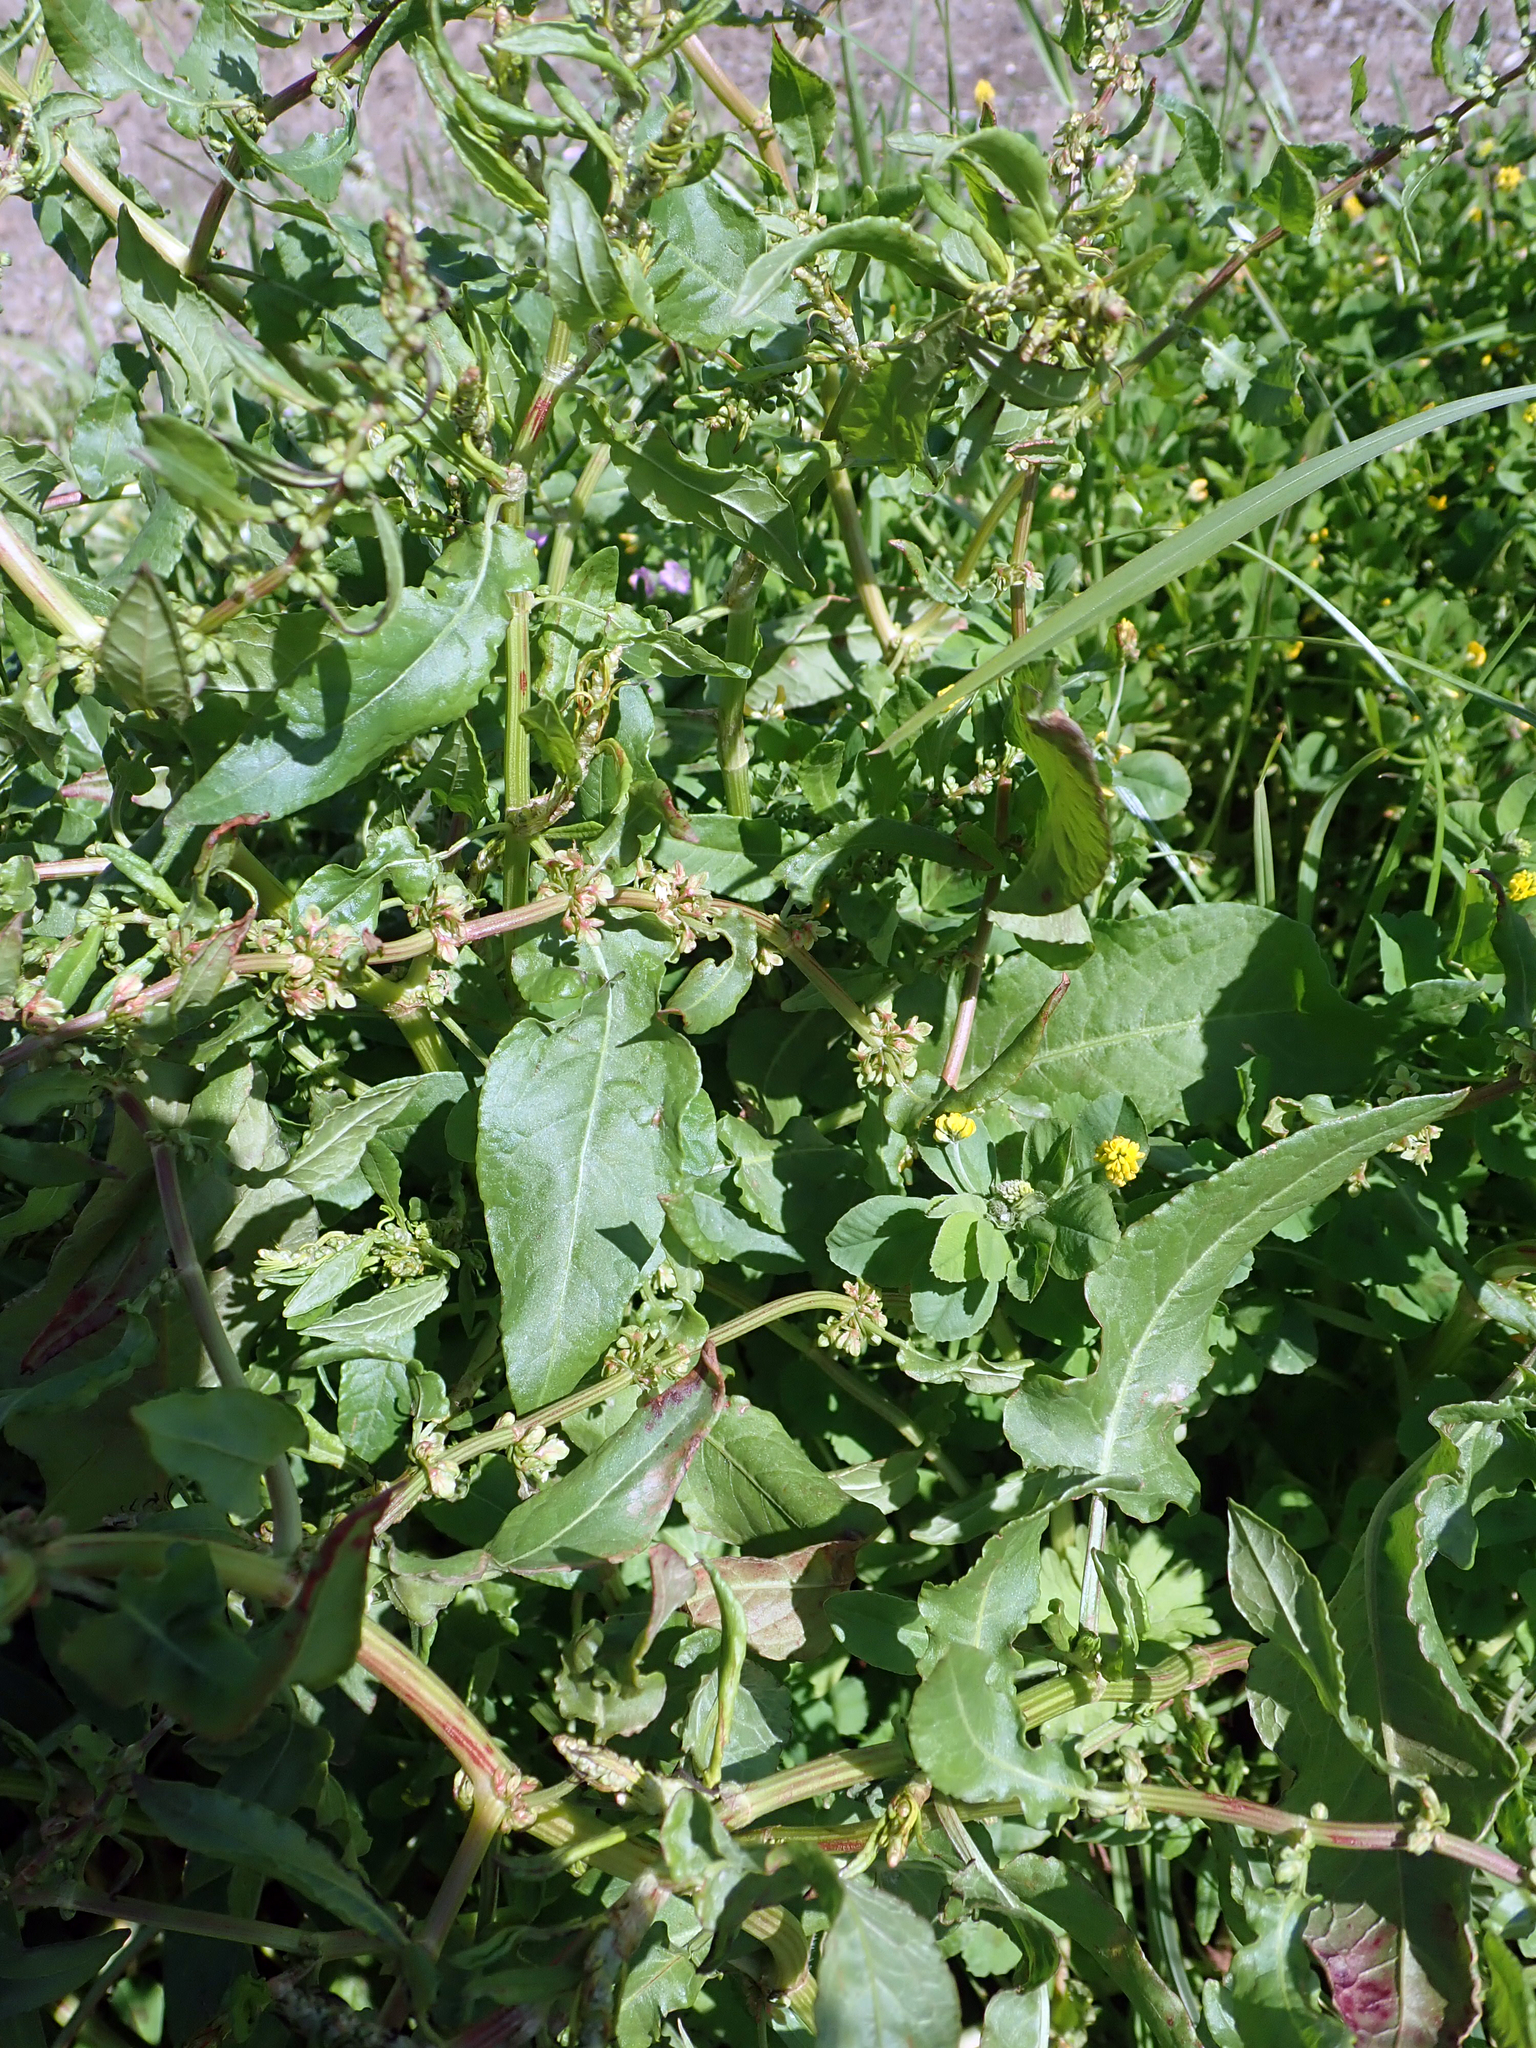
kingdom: Plantae
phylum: Tracheophyta
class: Magnoliopsida
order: Caryophyllales
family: Polygonaceae
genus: Rumex
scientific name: Rumex pulcher
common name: Fiddle dock
